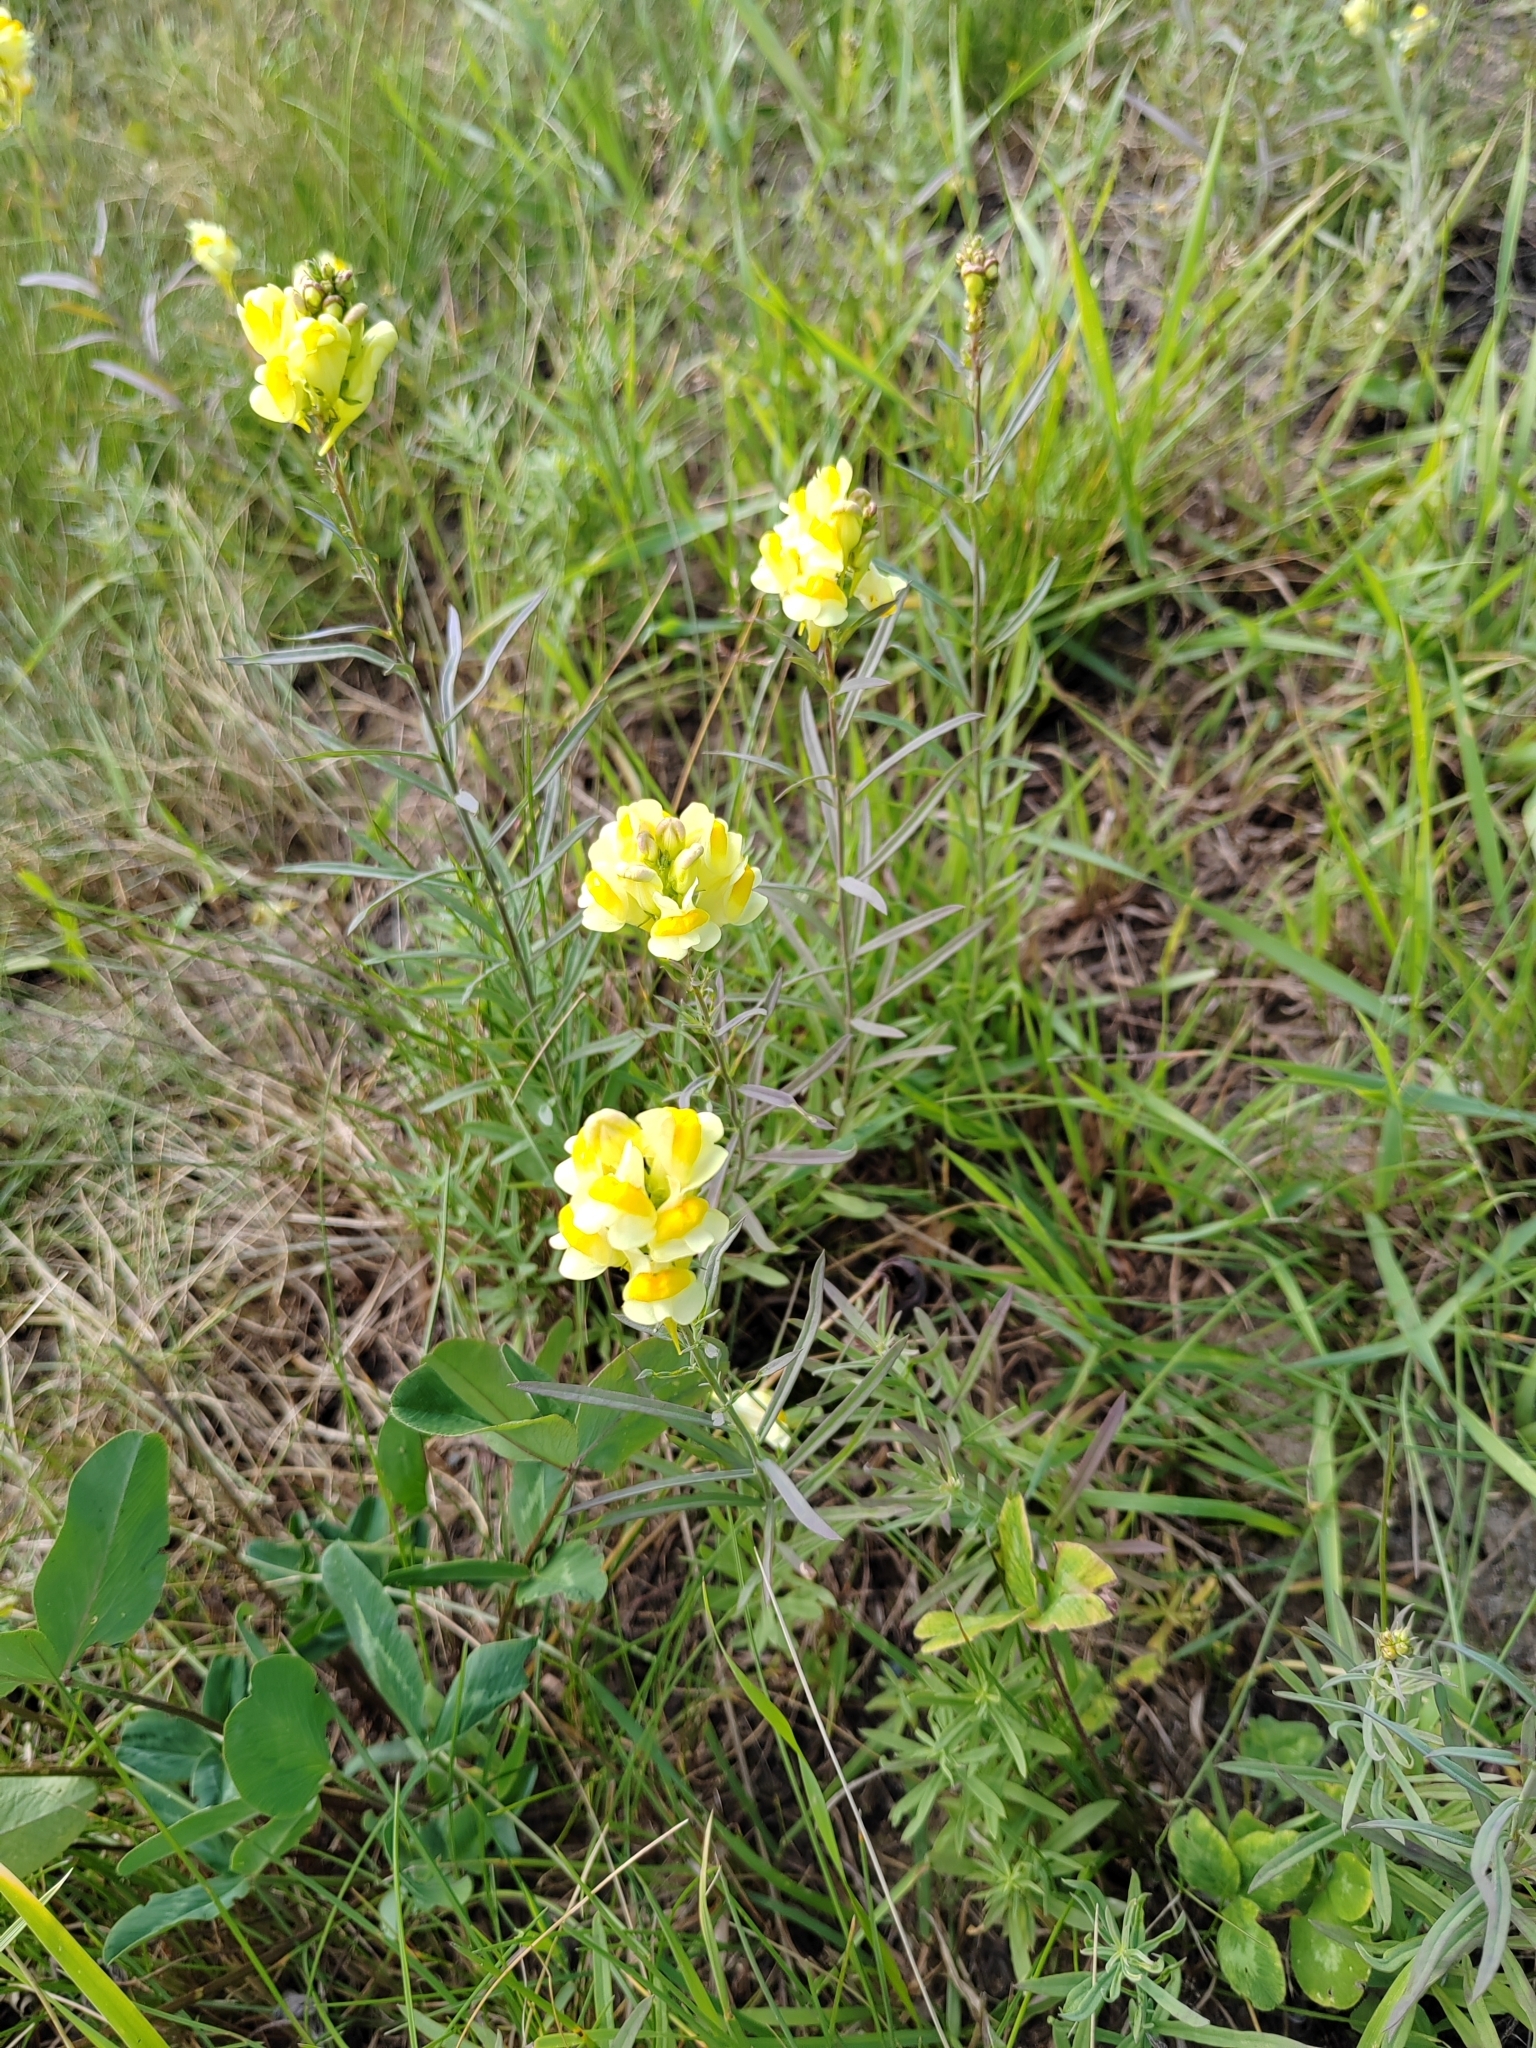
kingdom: Plantae
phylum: Tracheophyta
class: Magnoliopsida
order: Lamiales
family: Plantaginaceae
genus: Linaria
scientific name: Linaria vulgaris
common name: Butter and eggs
